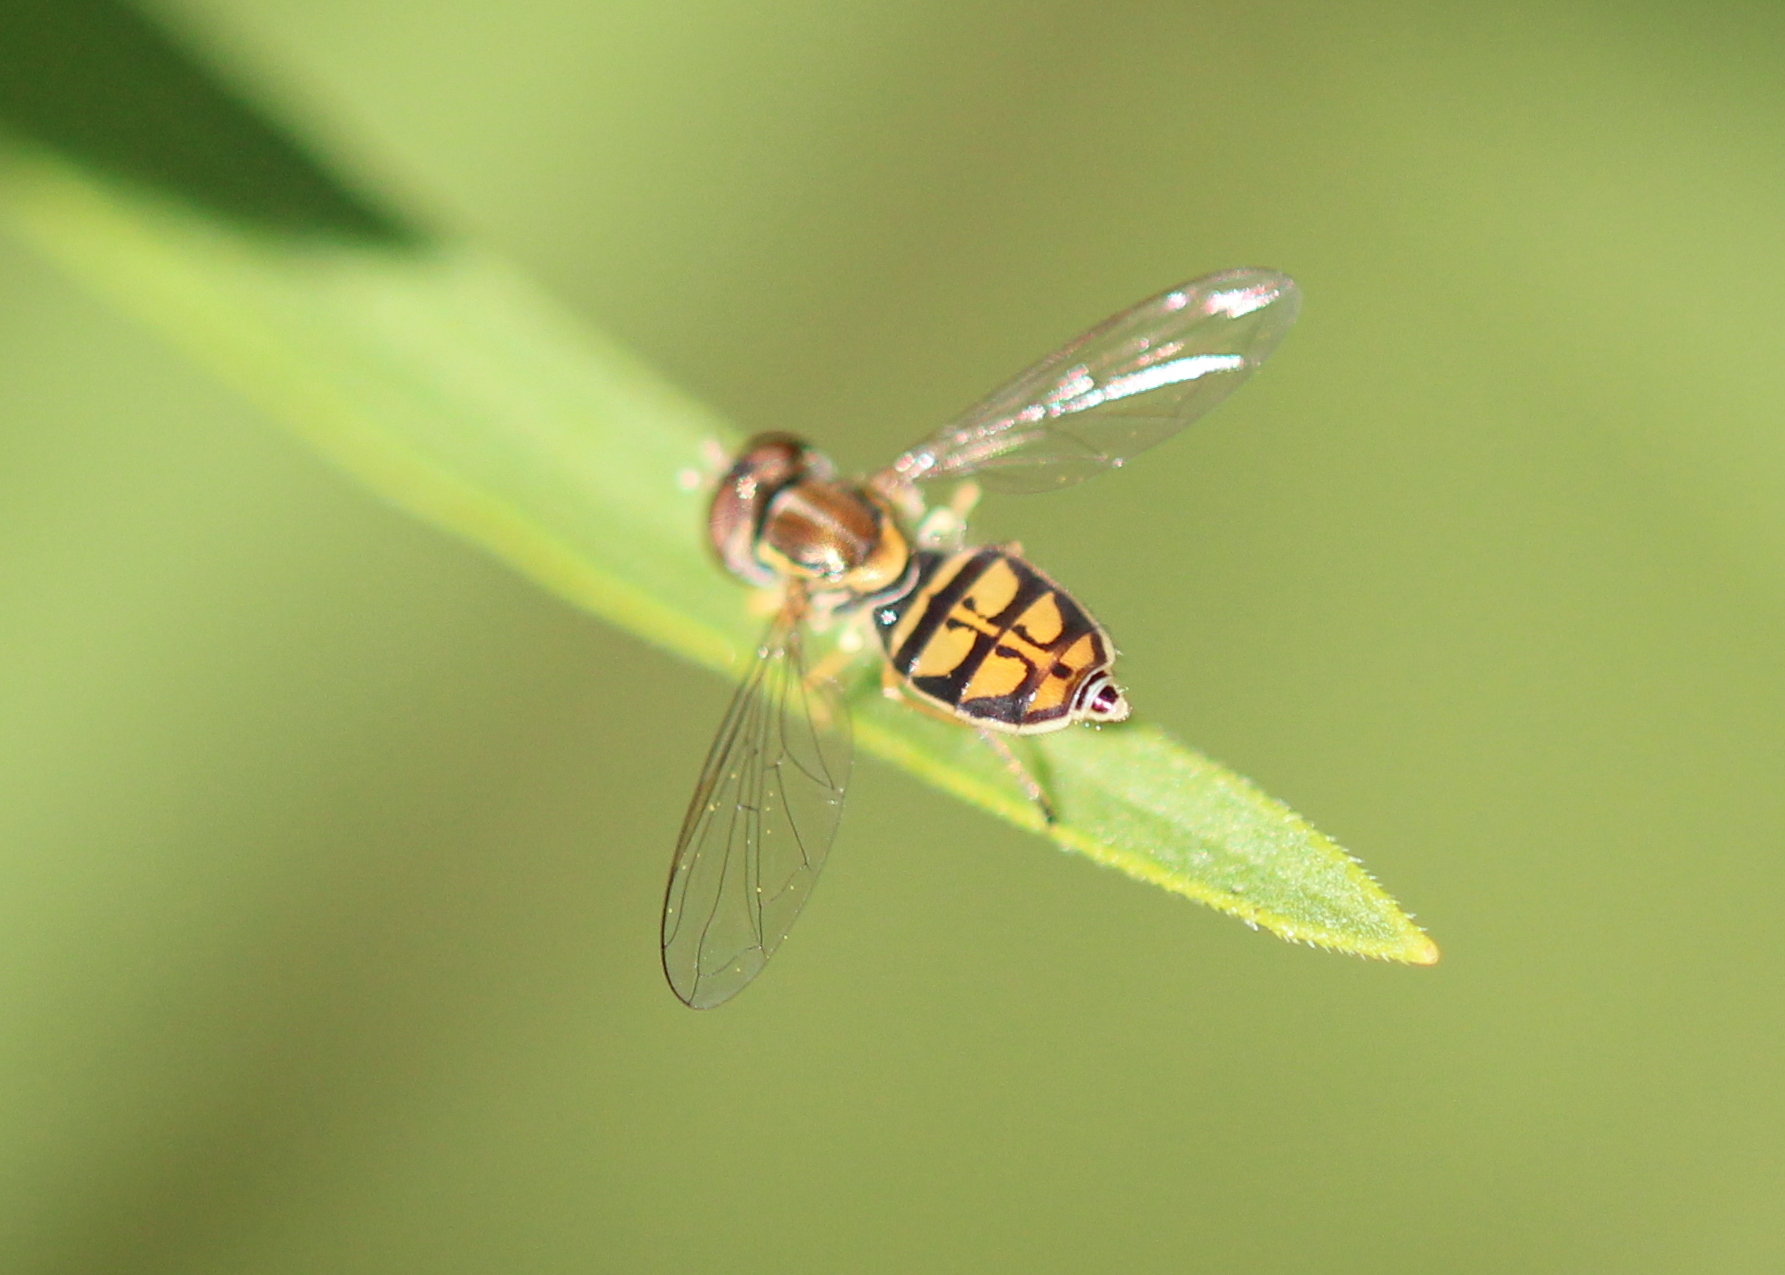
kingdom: Animalia
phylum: Arthropoda
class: Insecta
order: Diptera
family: Syrphidae
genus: Toxomerus
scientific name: Toxomerus marginatus
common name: Syrphid fly
